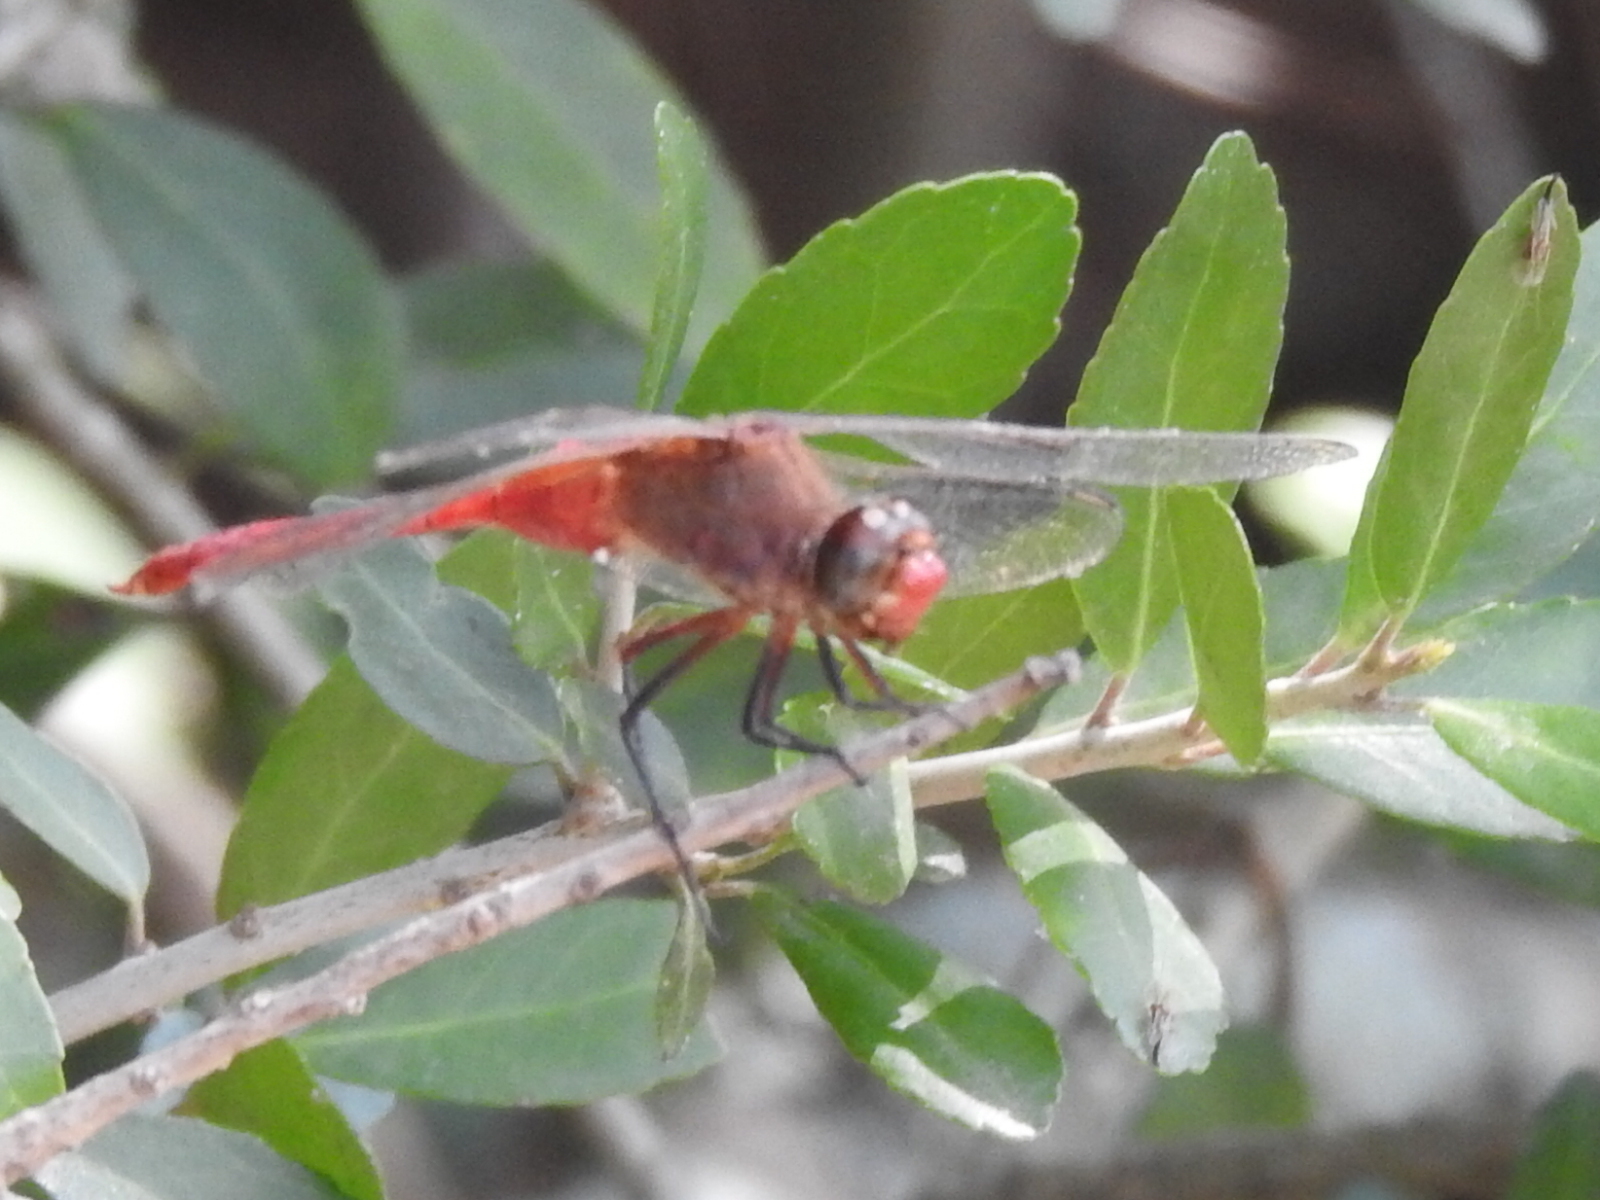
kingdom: Animalia
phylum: Arthropoda
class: Insecta
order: Odonata
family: Libellulidae
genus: Brachymesia
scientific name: Brachymesia furcata
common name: Red-taled pennant
